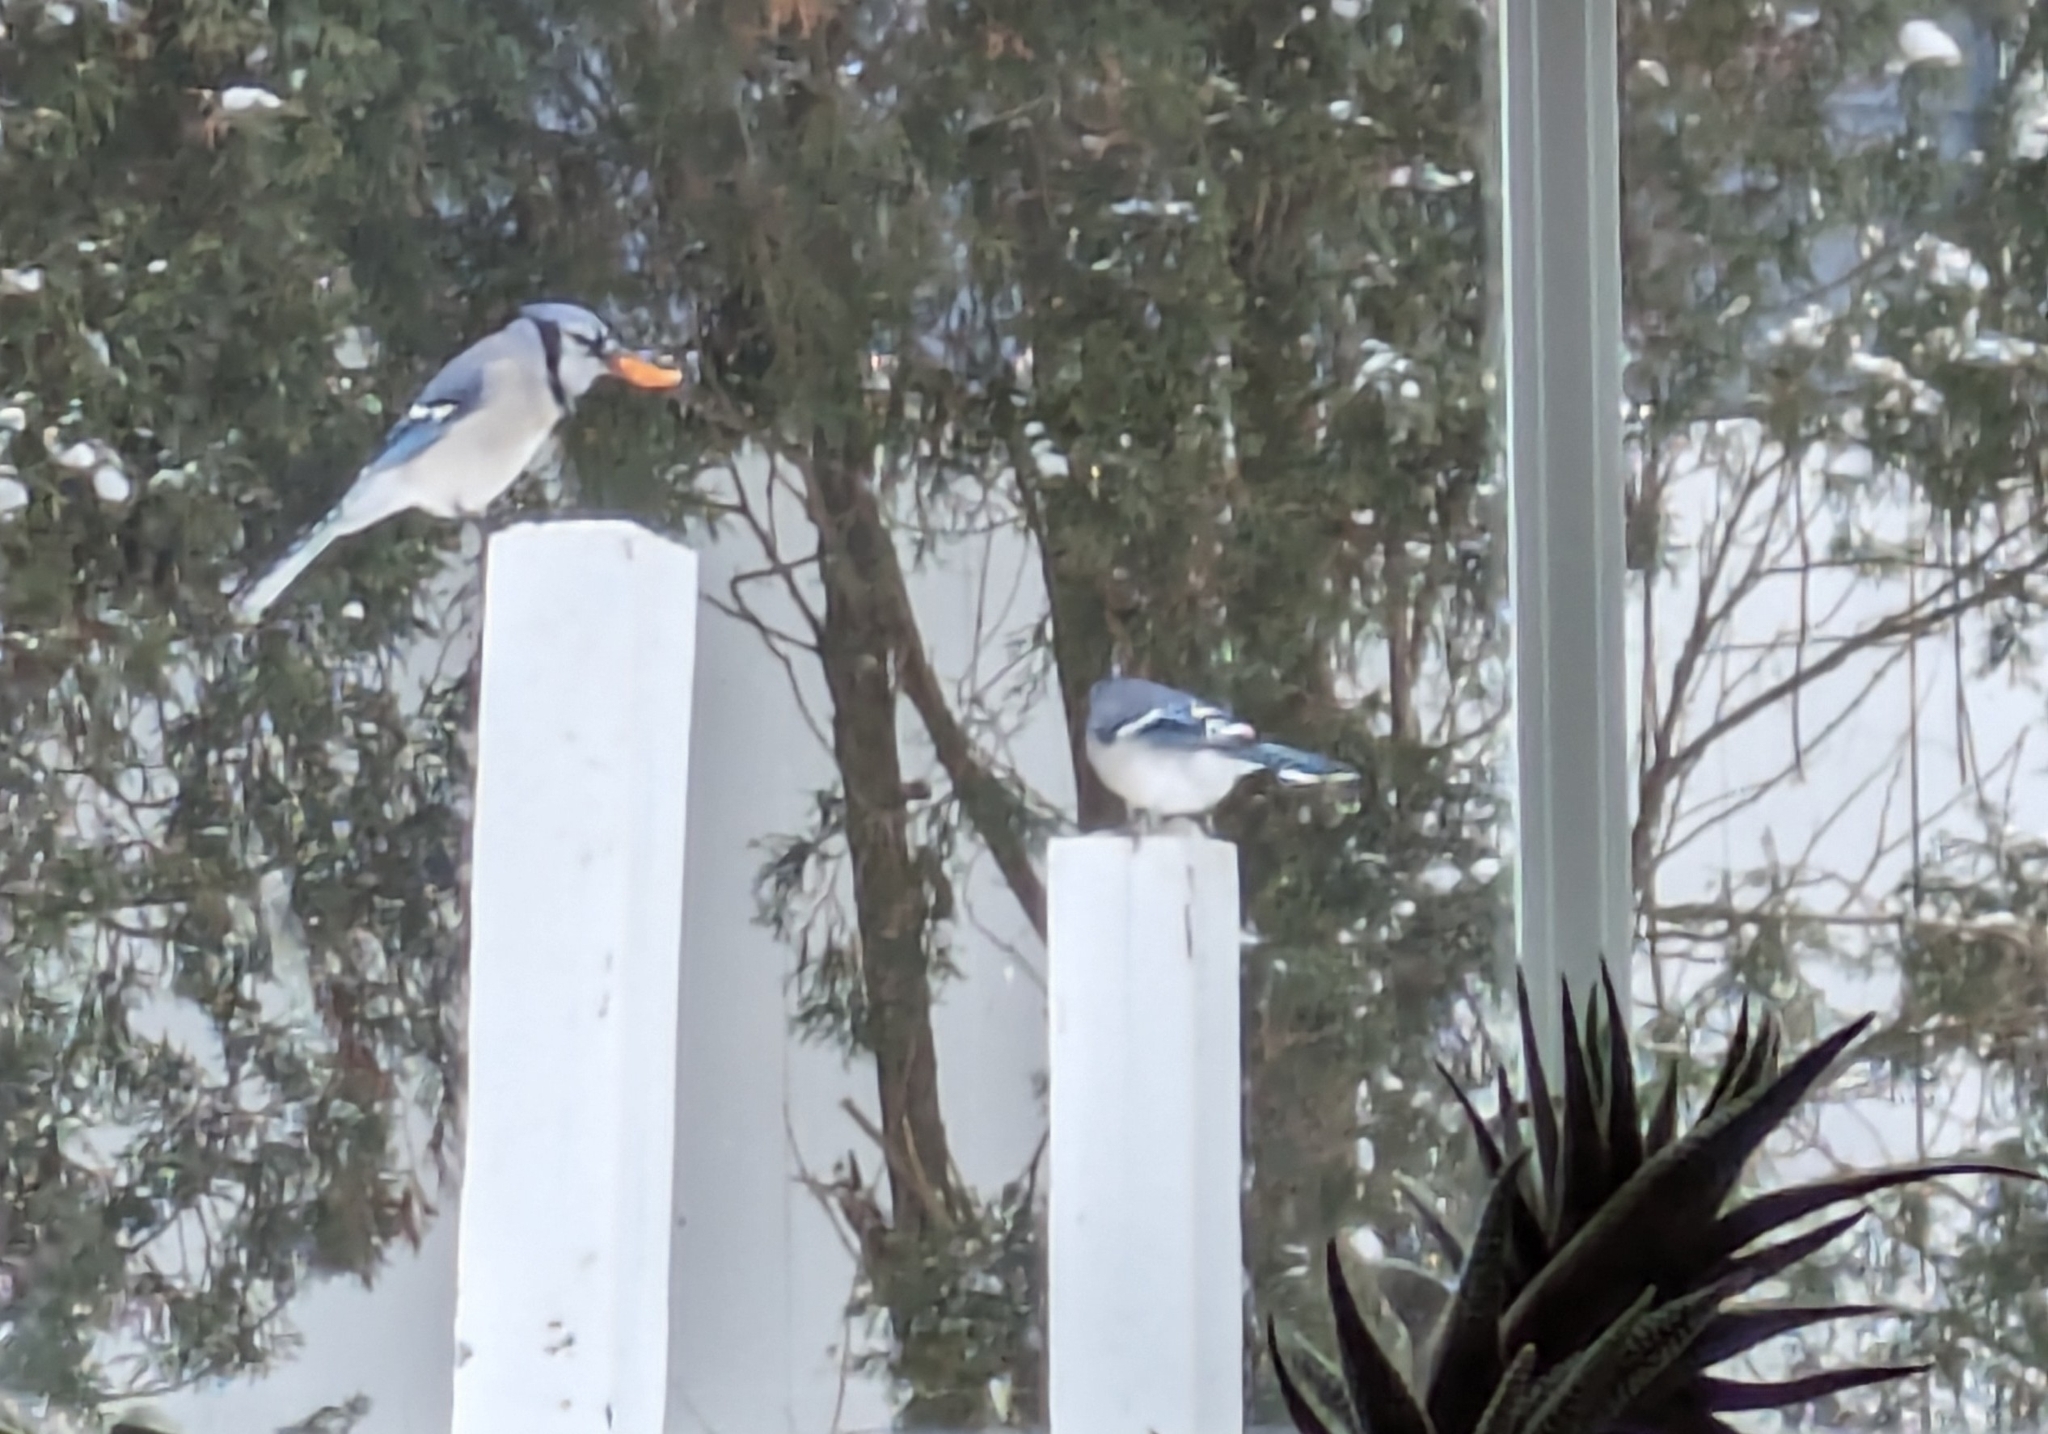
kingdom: Animalia
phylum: Chordata
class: Aves
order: Passeriformes
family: Corvidae
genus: Cyanocitta
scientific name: Cyanocitta cristata
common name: Blue jay
